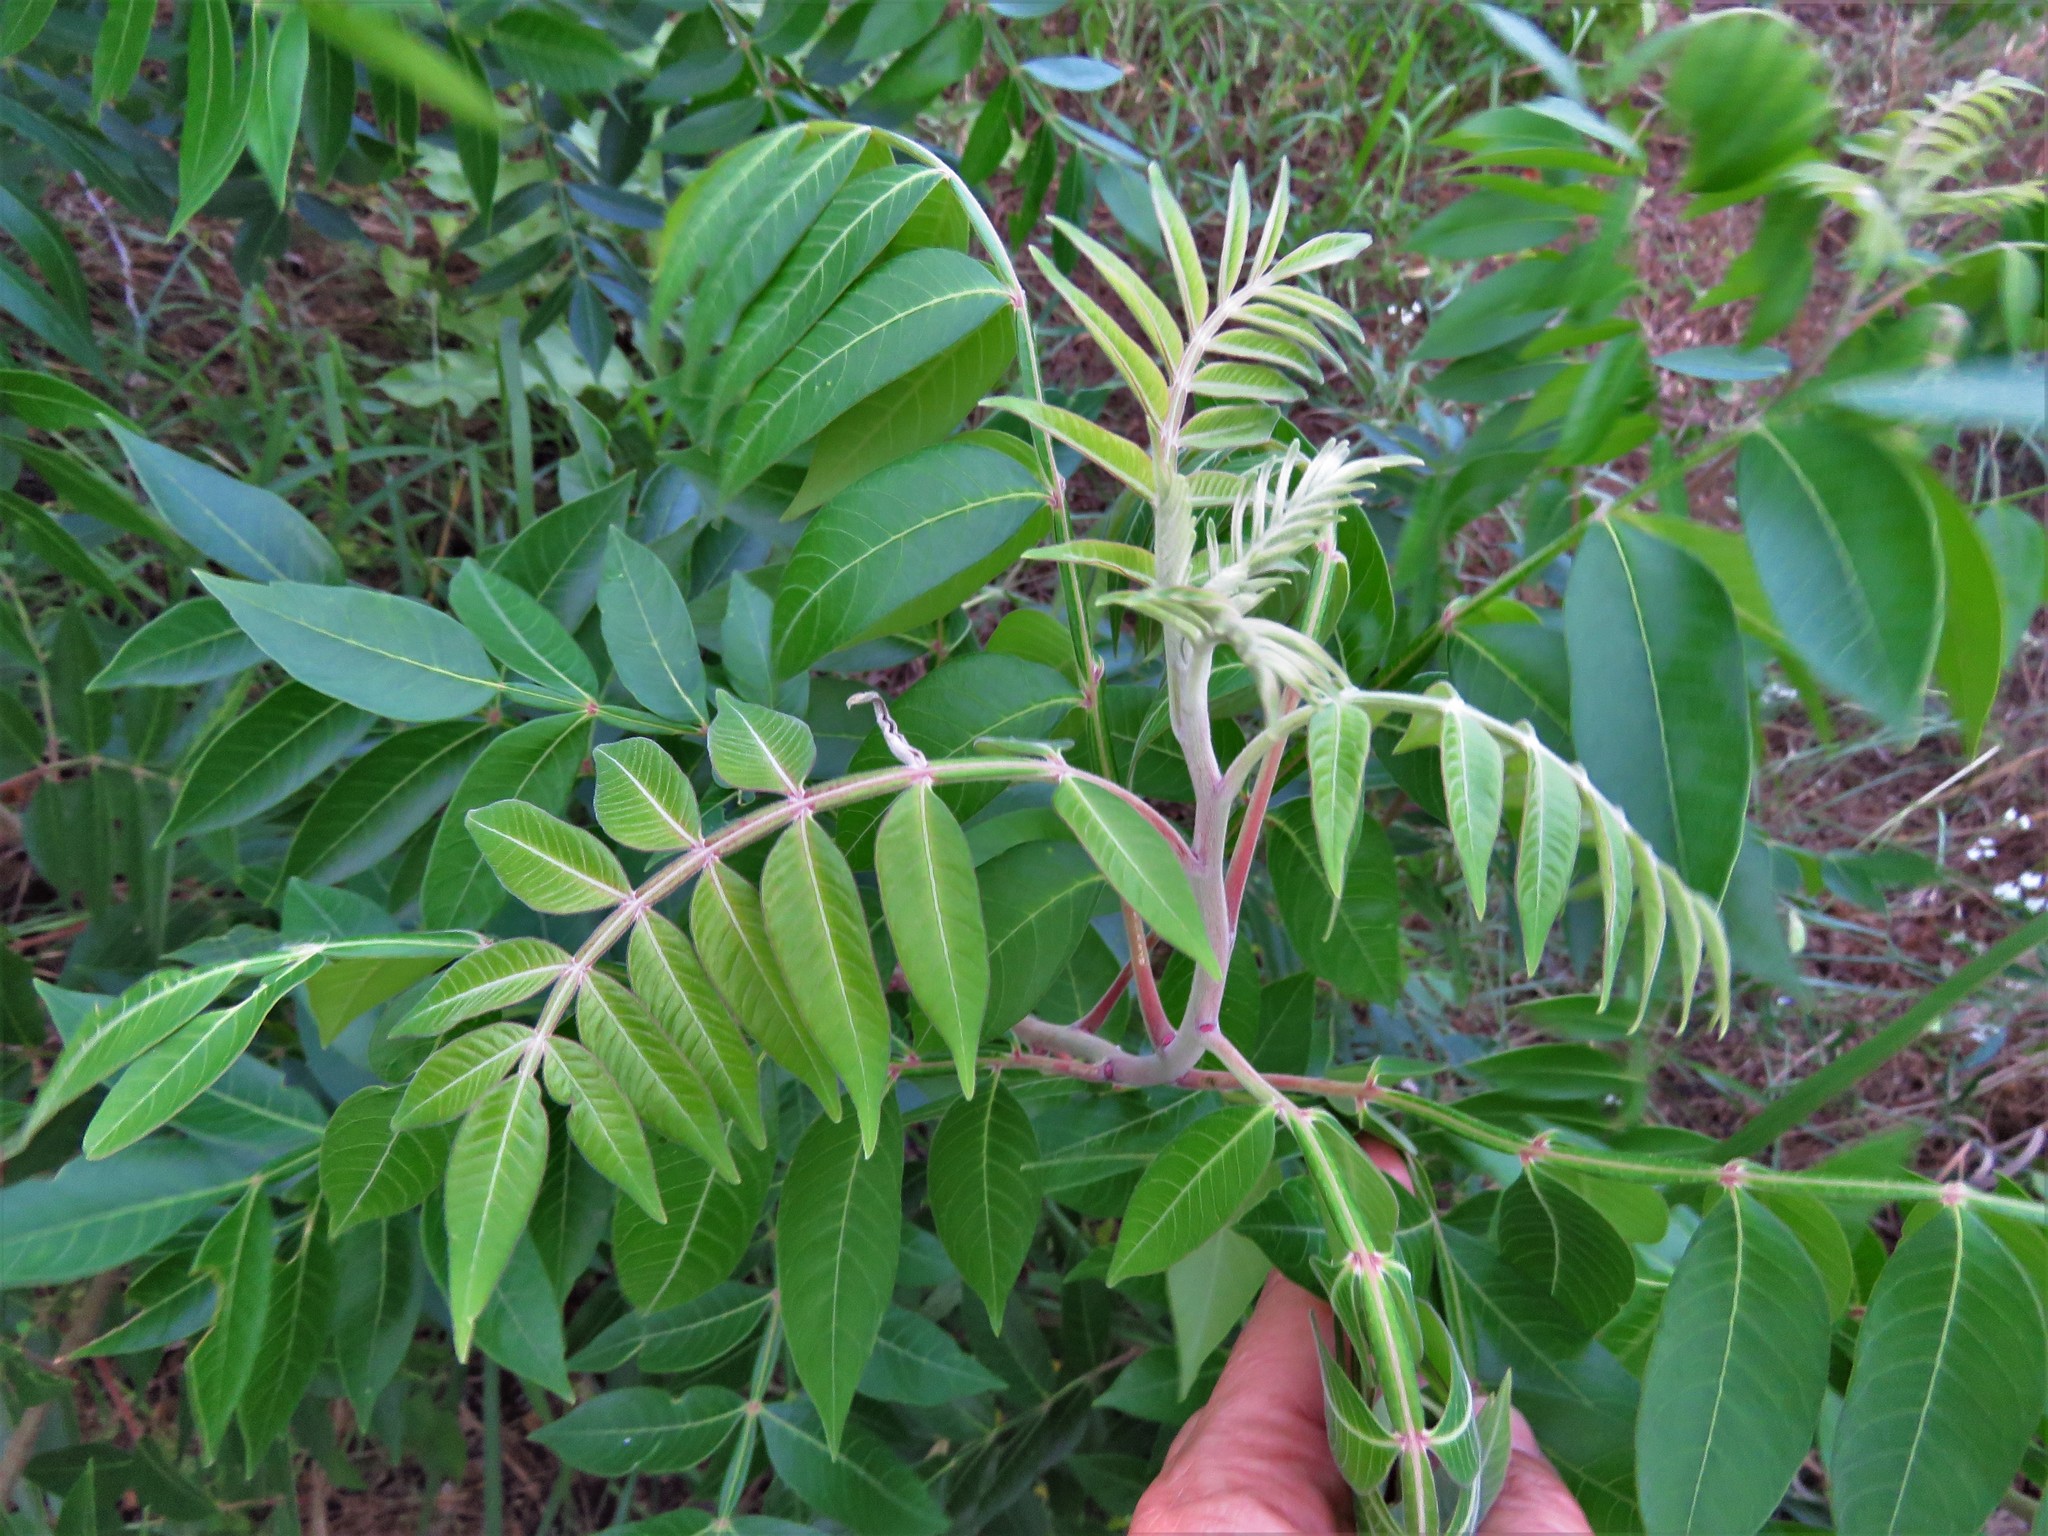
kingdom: Plantae
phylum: Tracheophyta
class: Magnoliopsida
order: Sapindales
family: Anacardiaceae
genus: Rhus
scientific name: Rhus copallina
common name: Shining sumac
